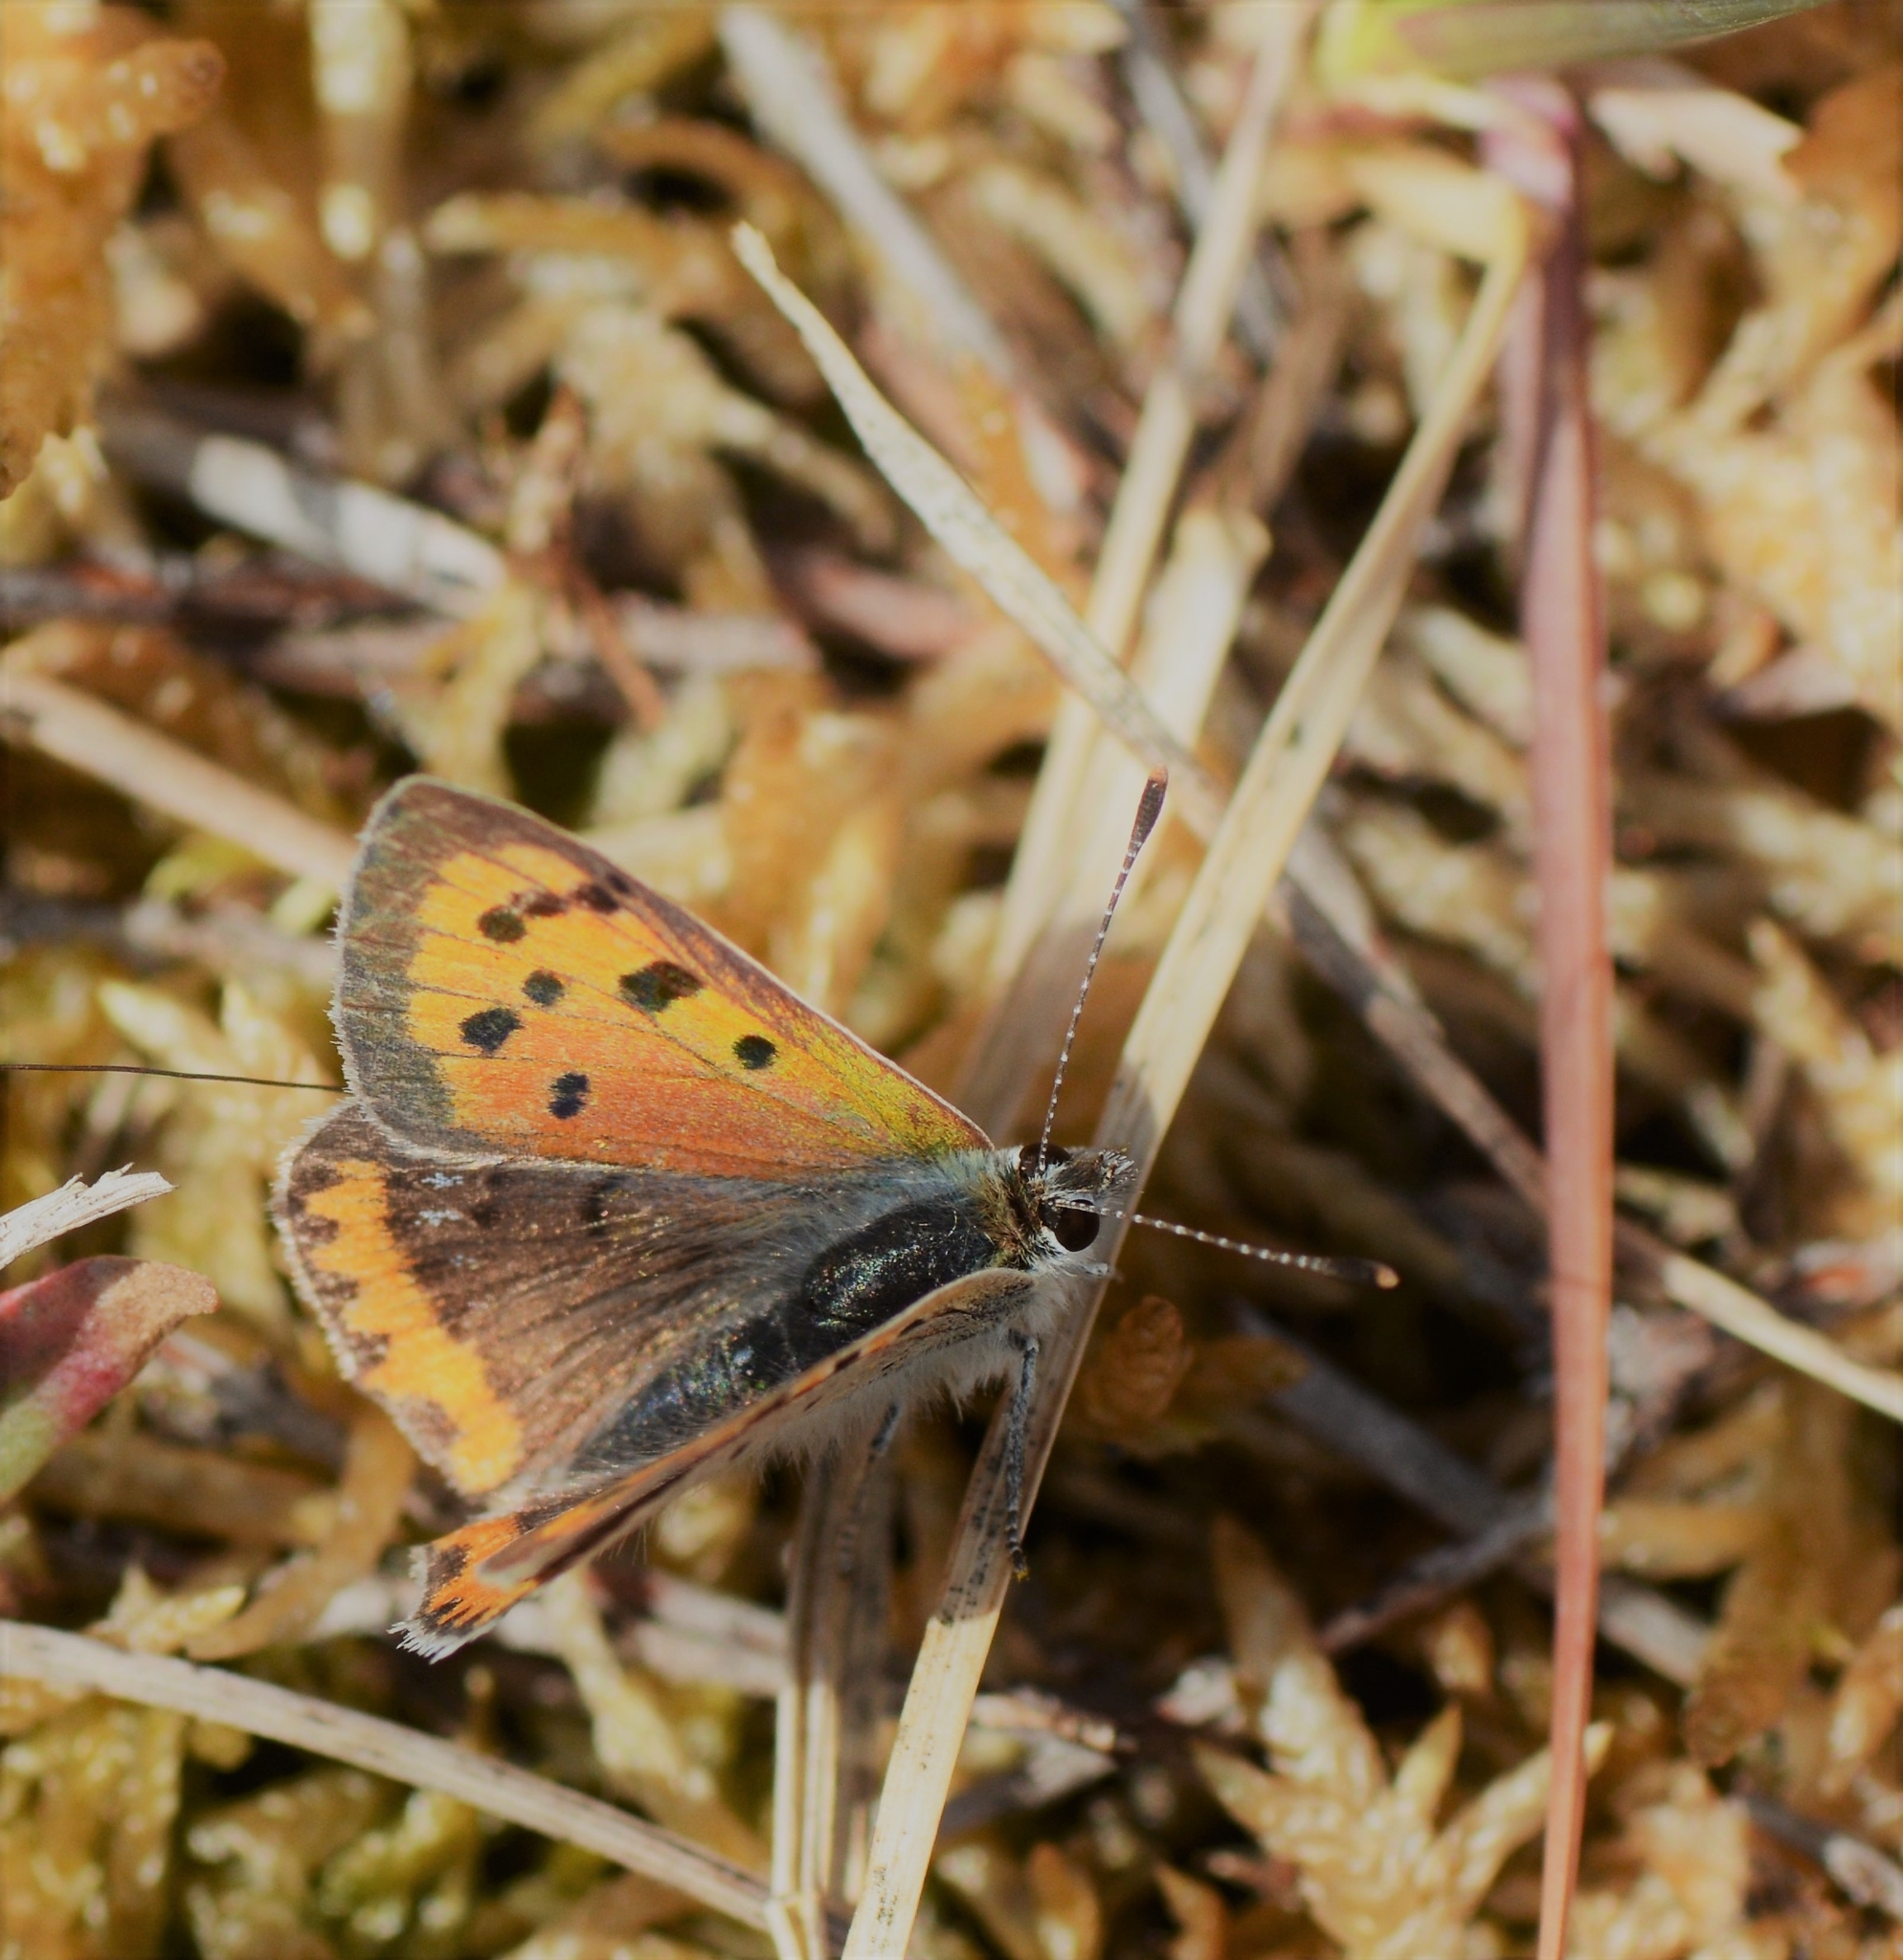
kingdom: Animalia
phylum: Arthropoda
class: Insecta
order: Lepidoptera
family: Lycaenidae
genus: Lycaena
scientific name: Lycaena phlaeas
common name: Small copper
